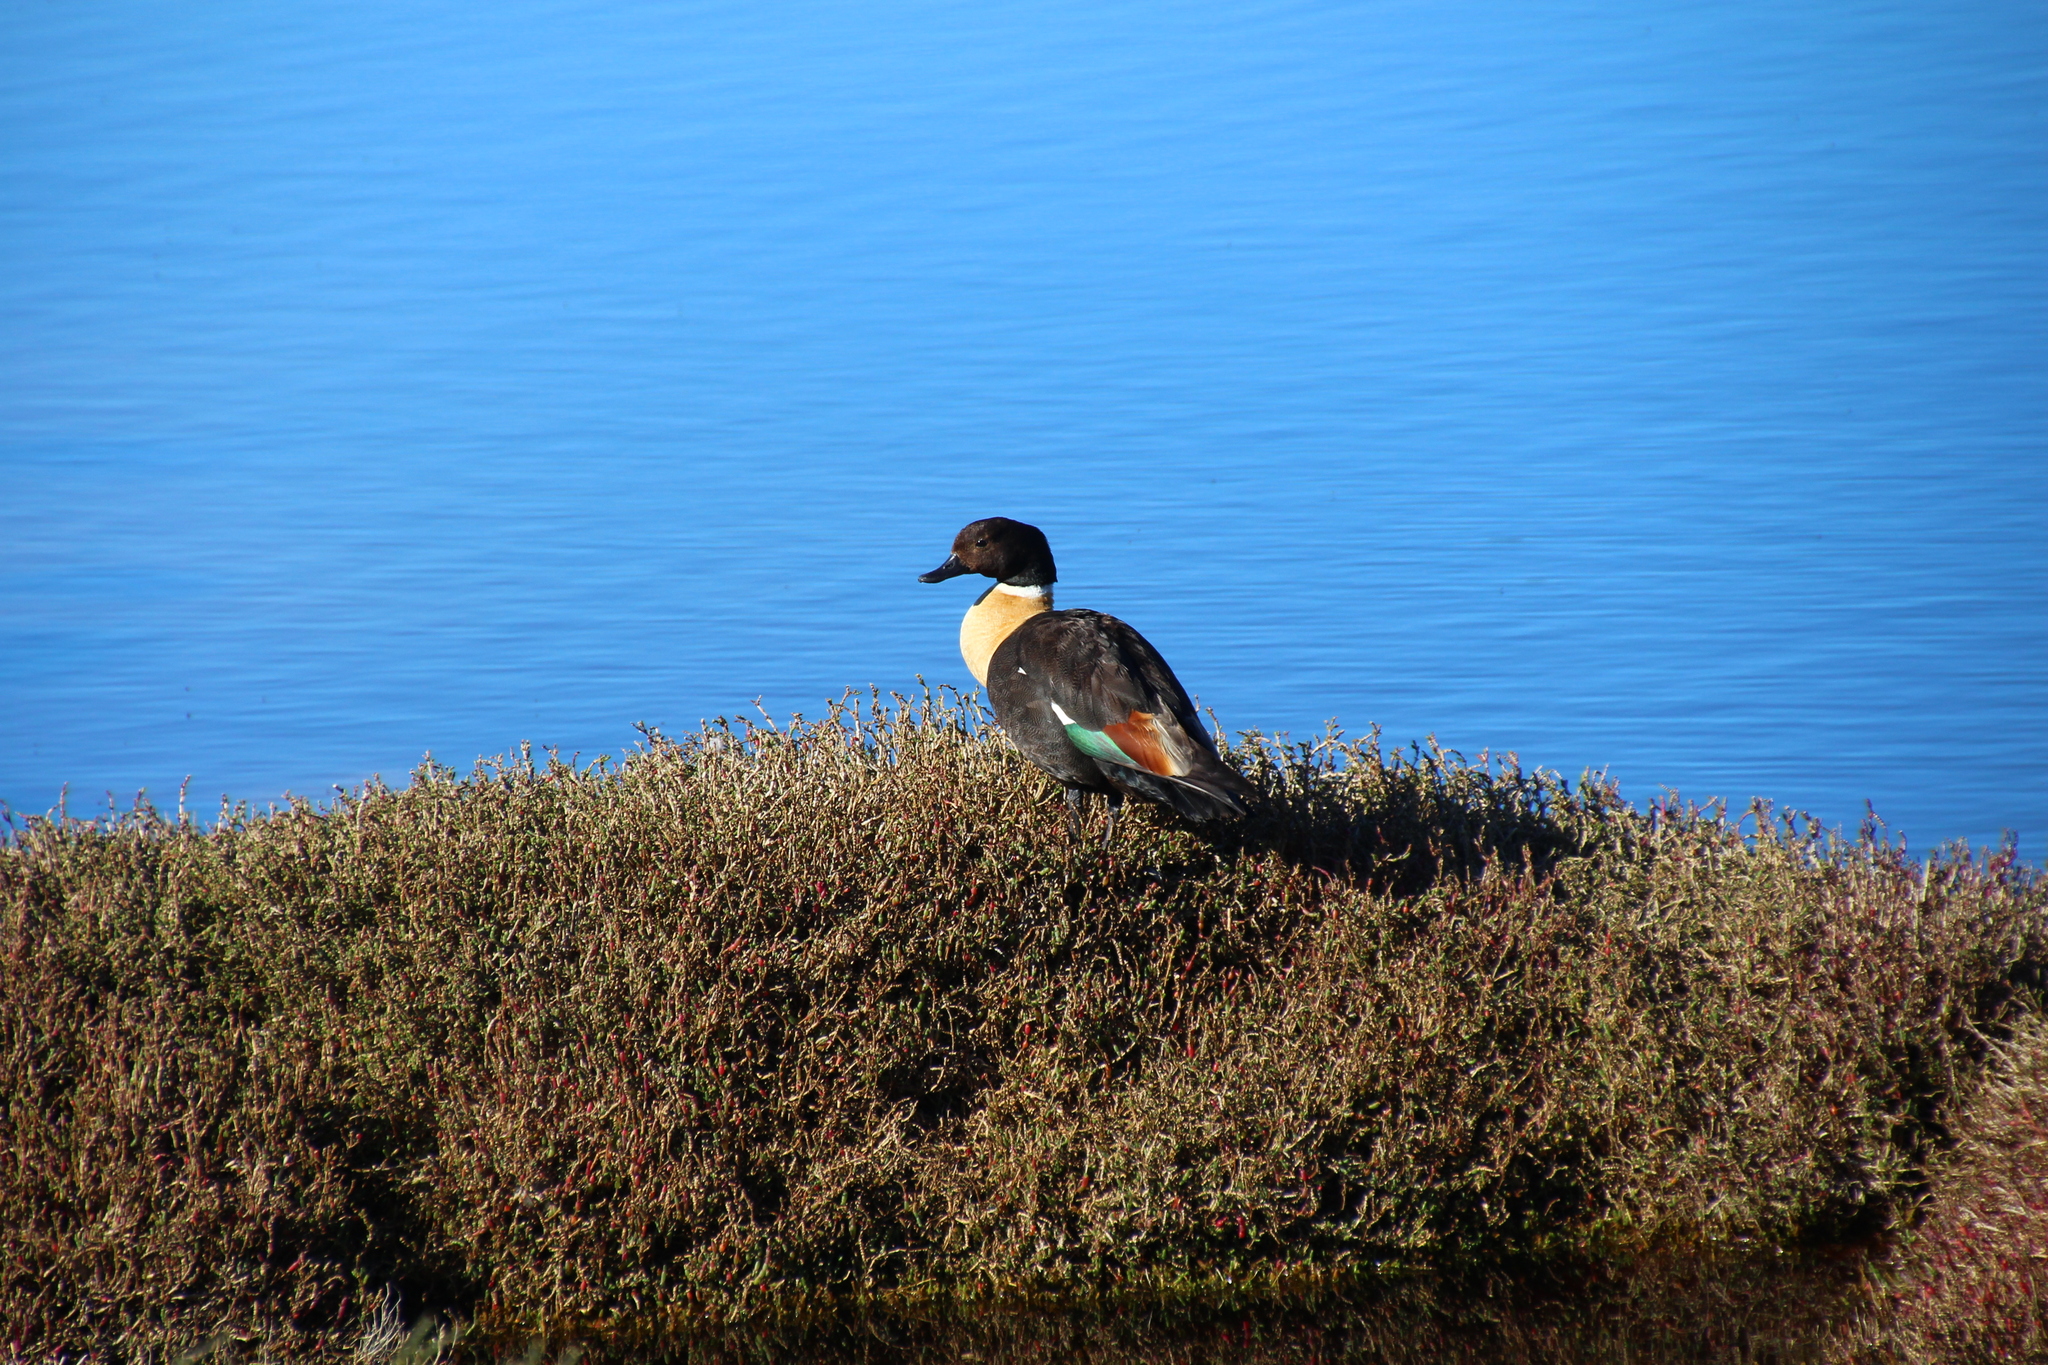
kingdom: Animalia
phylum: Chordata
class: Aves
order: Anseriformes
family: Anatidae
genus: Tadorna
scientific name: Tadorna tadornoides
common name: Australian shelduck
